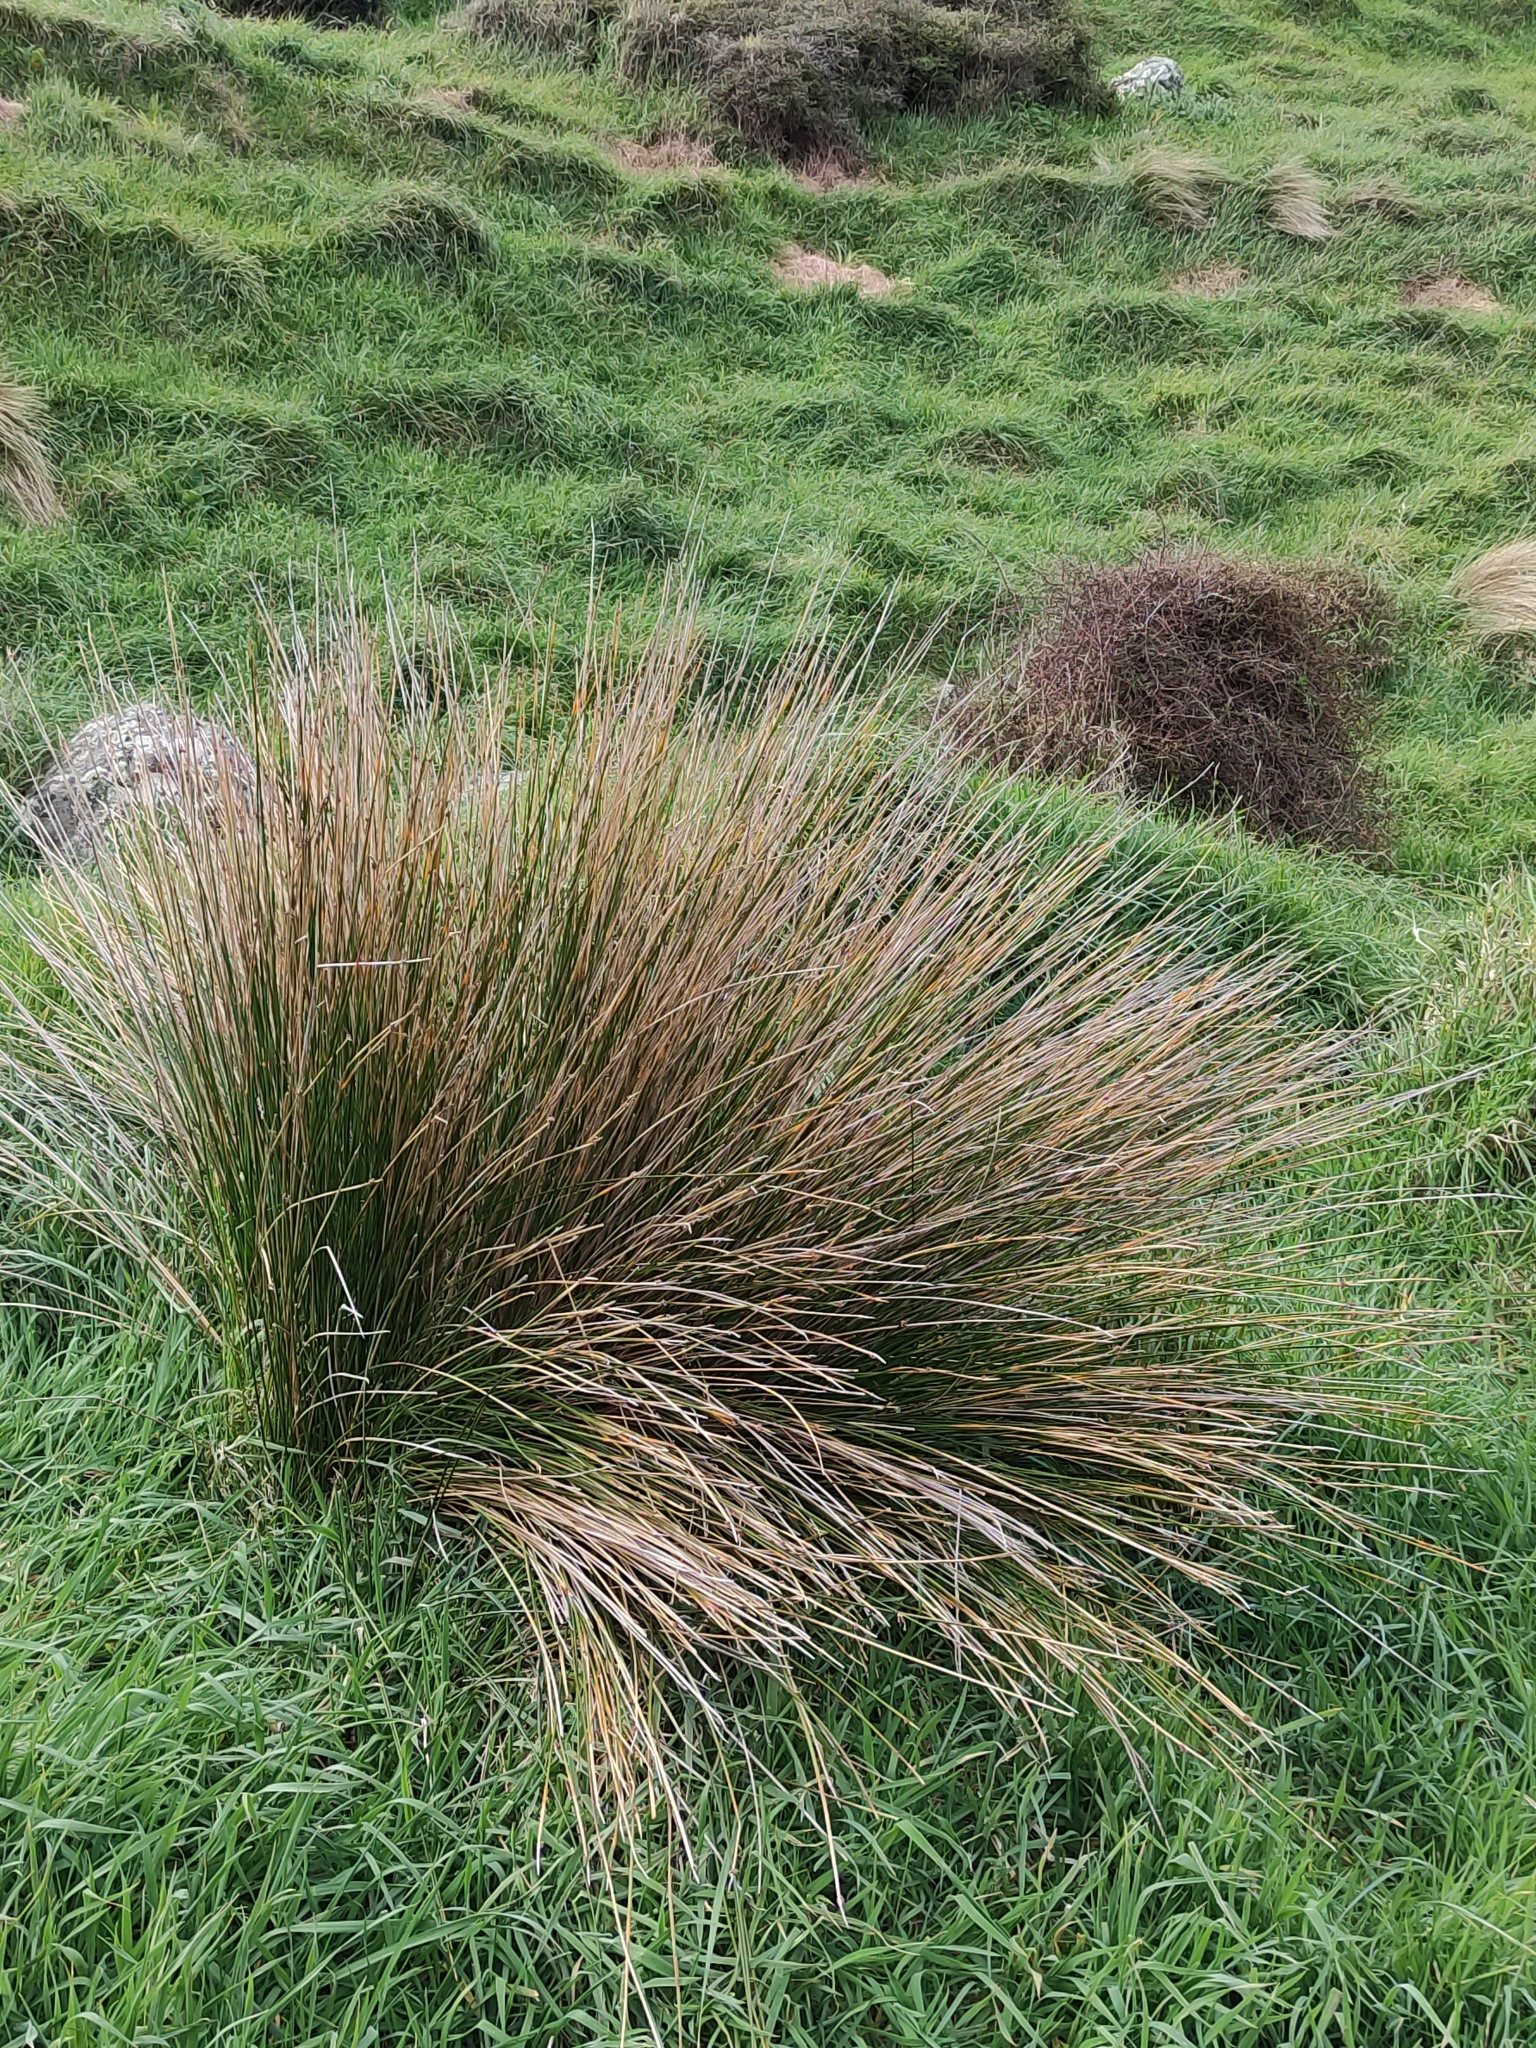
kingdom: Plantae
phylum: Tracheophyta
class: Liliopsida
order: Poales
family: Cyperaceae
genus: Ficinia
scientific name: Ficinia nodosa
